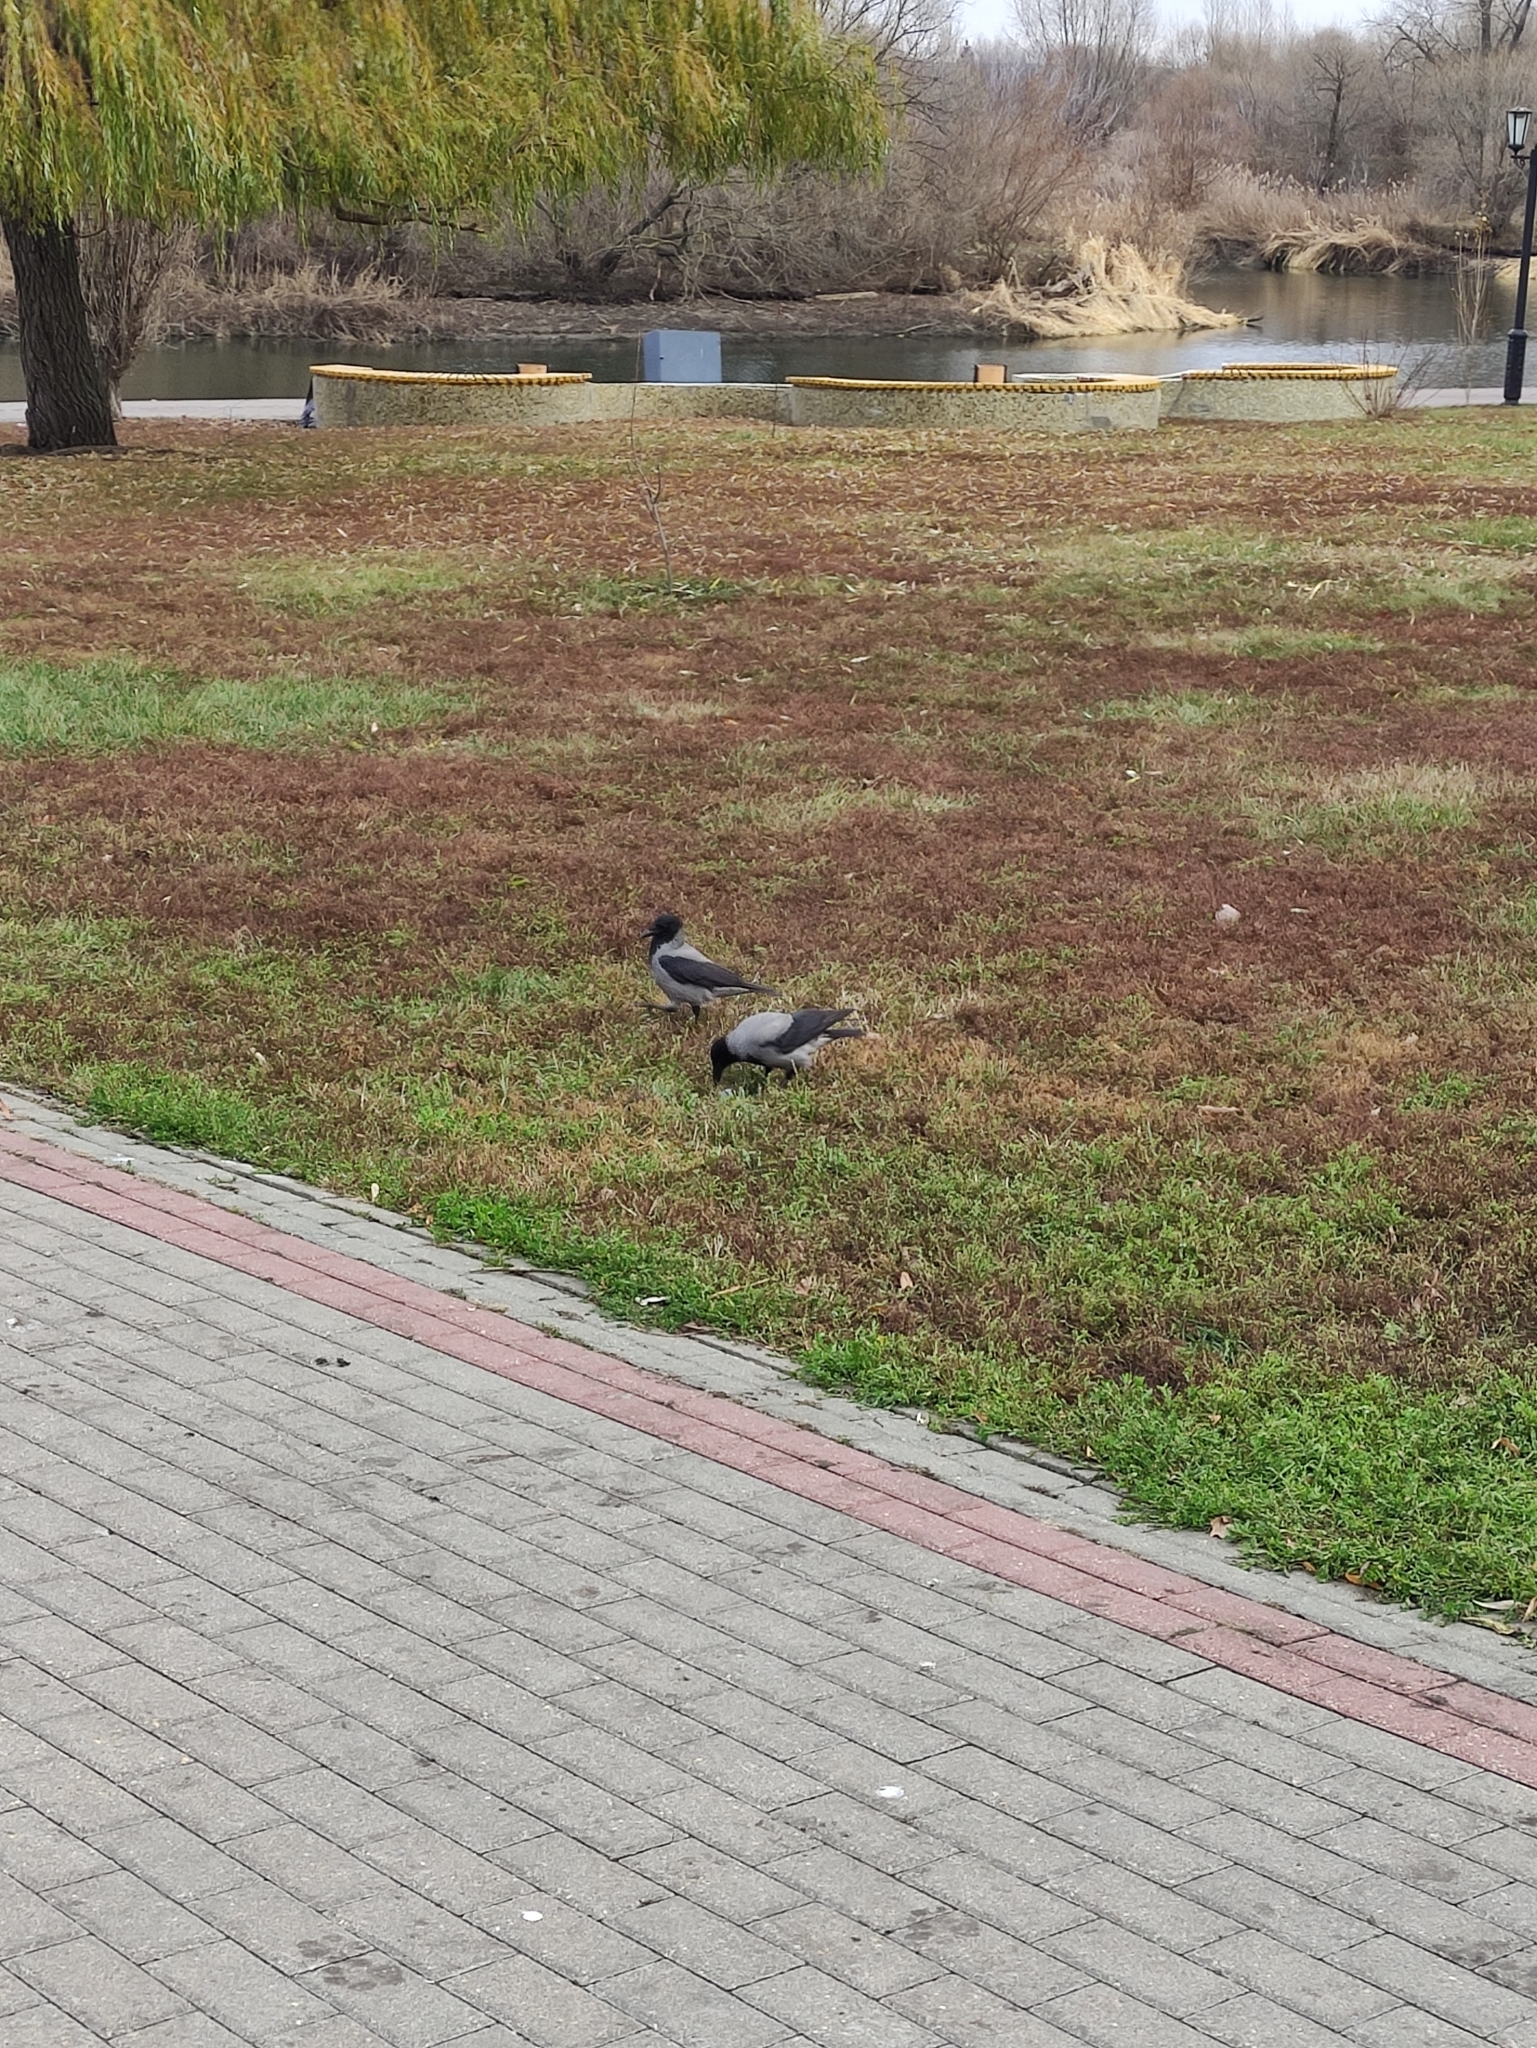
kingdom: Animalia
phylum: Chordata
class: Aves
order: Passeriformes
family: Corvidae
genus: Corvus
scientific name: Corvus cornix
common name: Hooded crow
